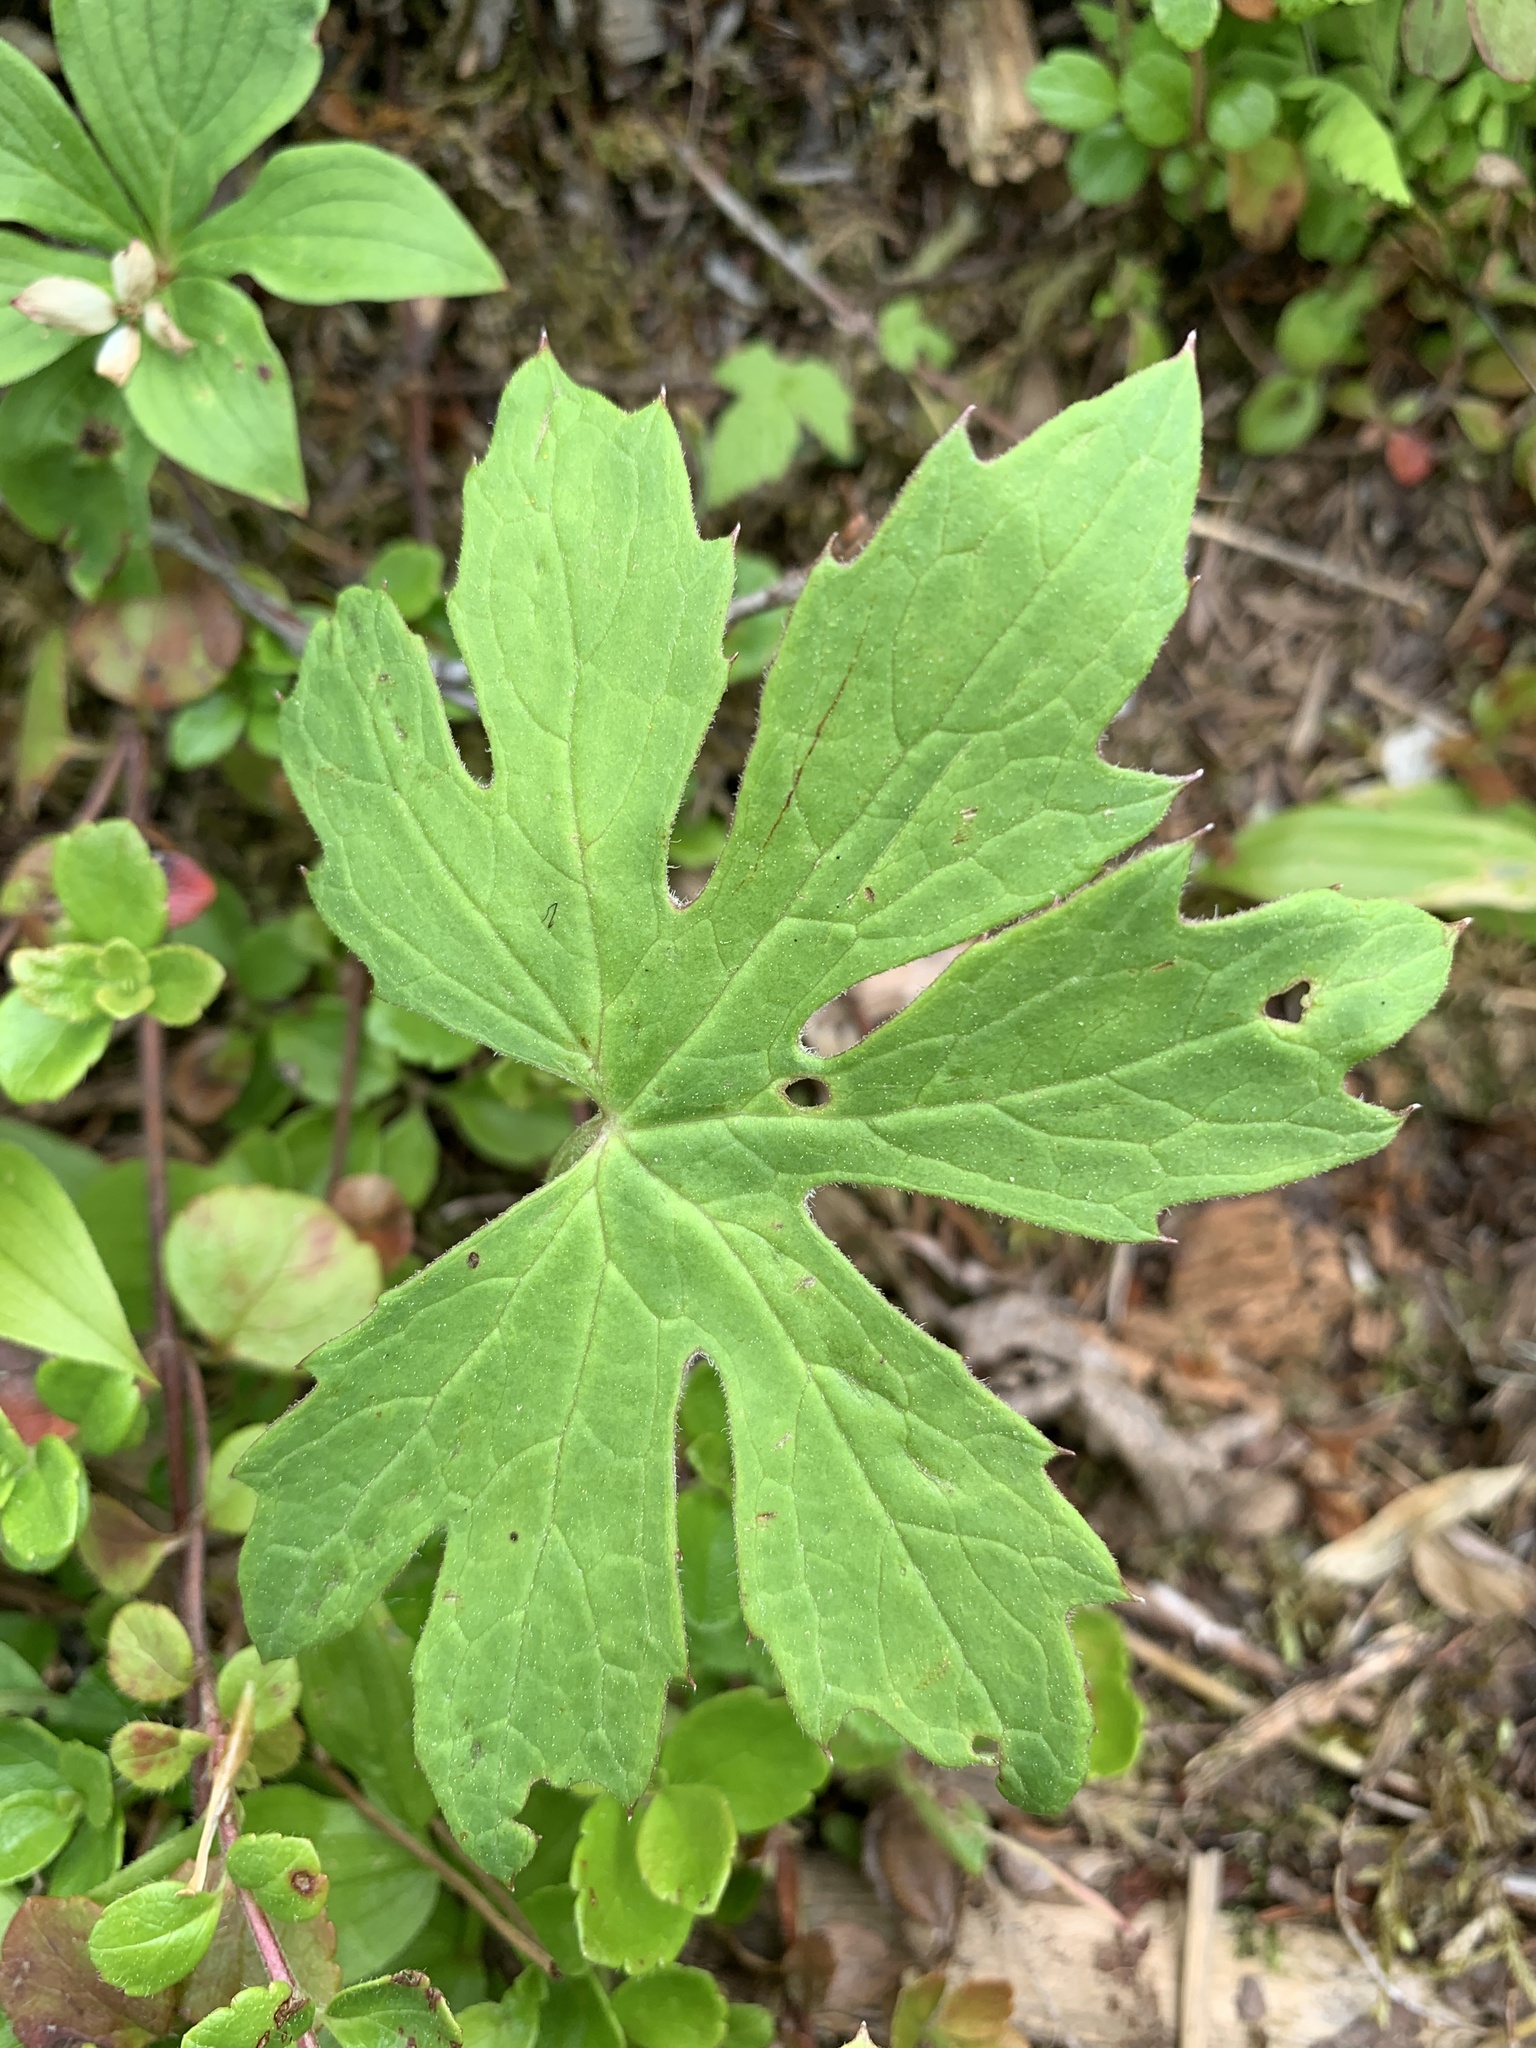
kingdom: Plantae
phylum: Tracheophyta
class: Magnoliopsida
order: Asterales
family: Asteraceae
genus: Petasites
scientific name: Petasites frigidus
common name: Arctic butterbur
